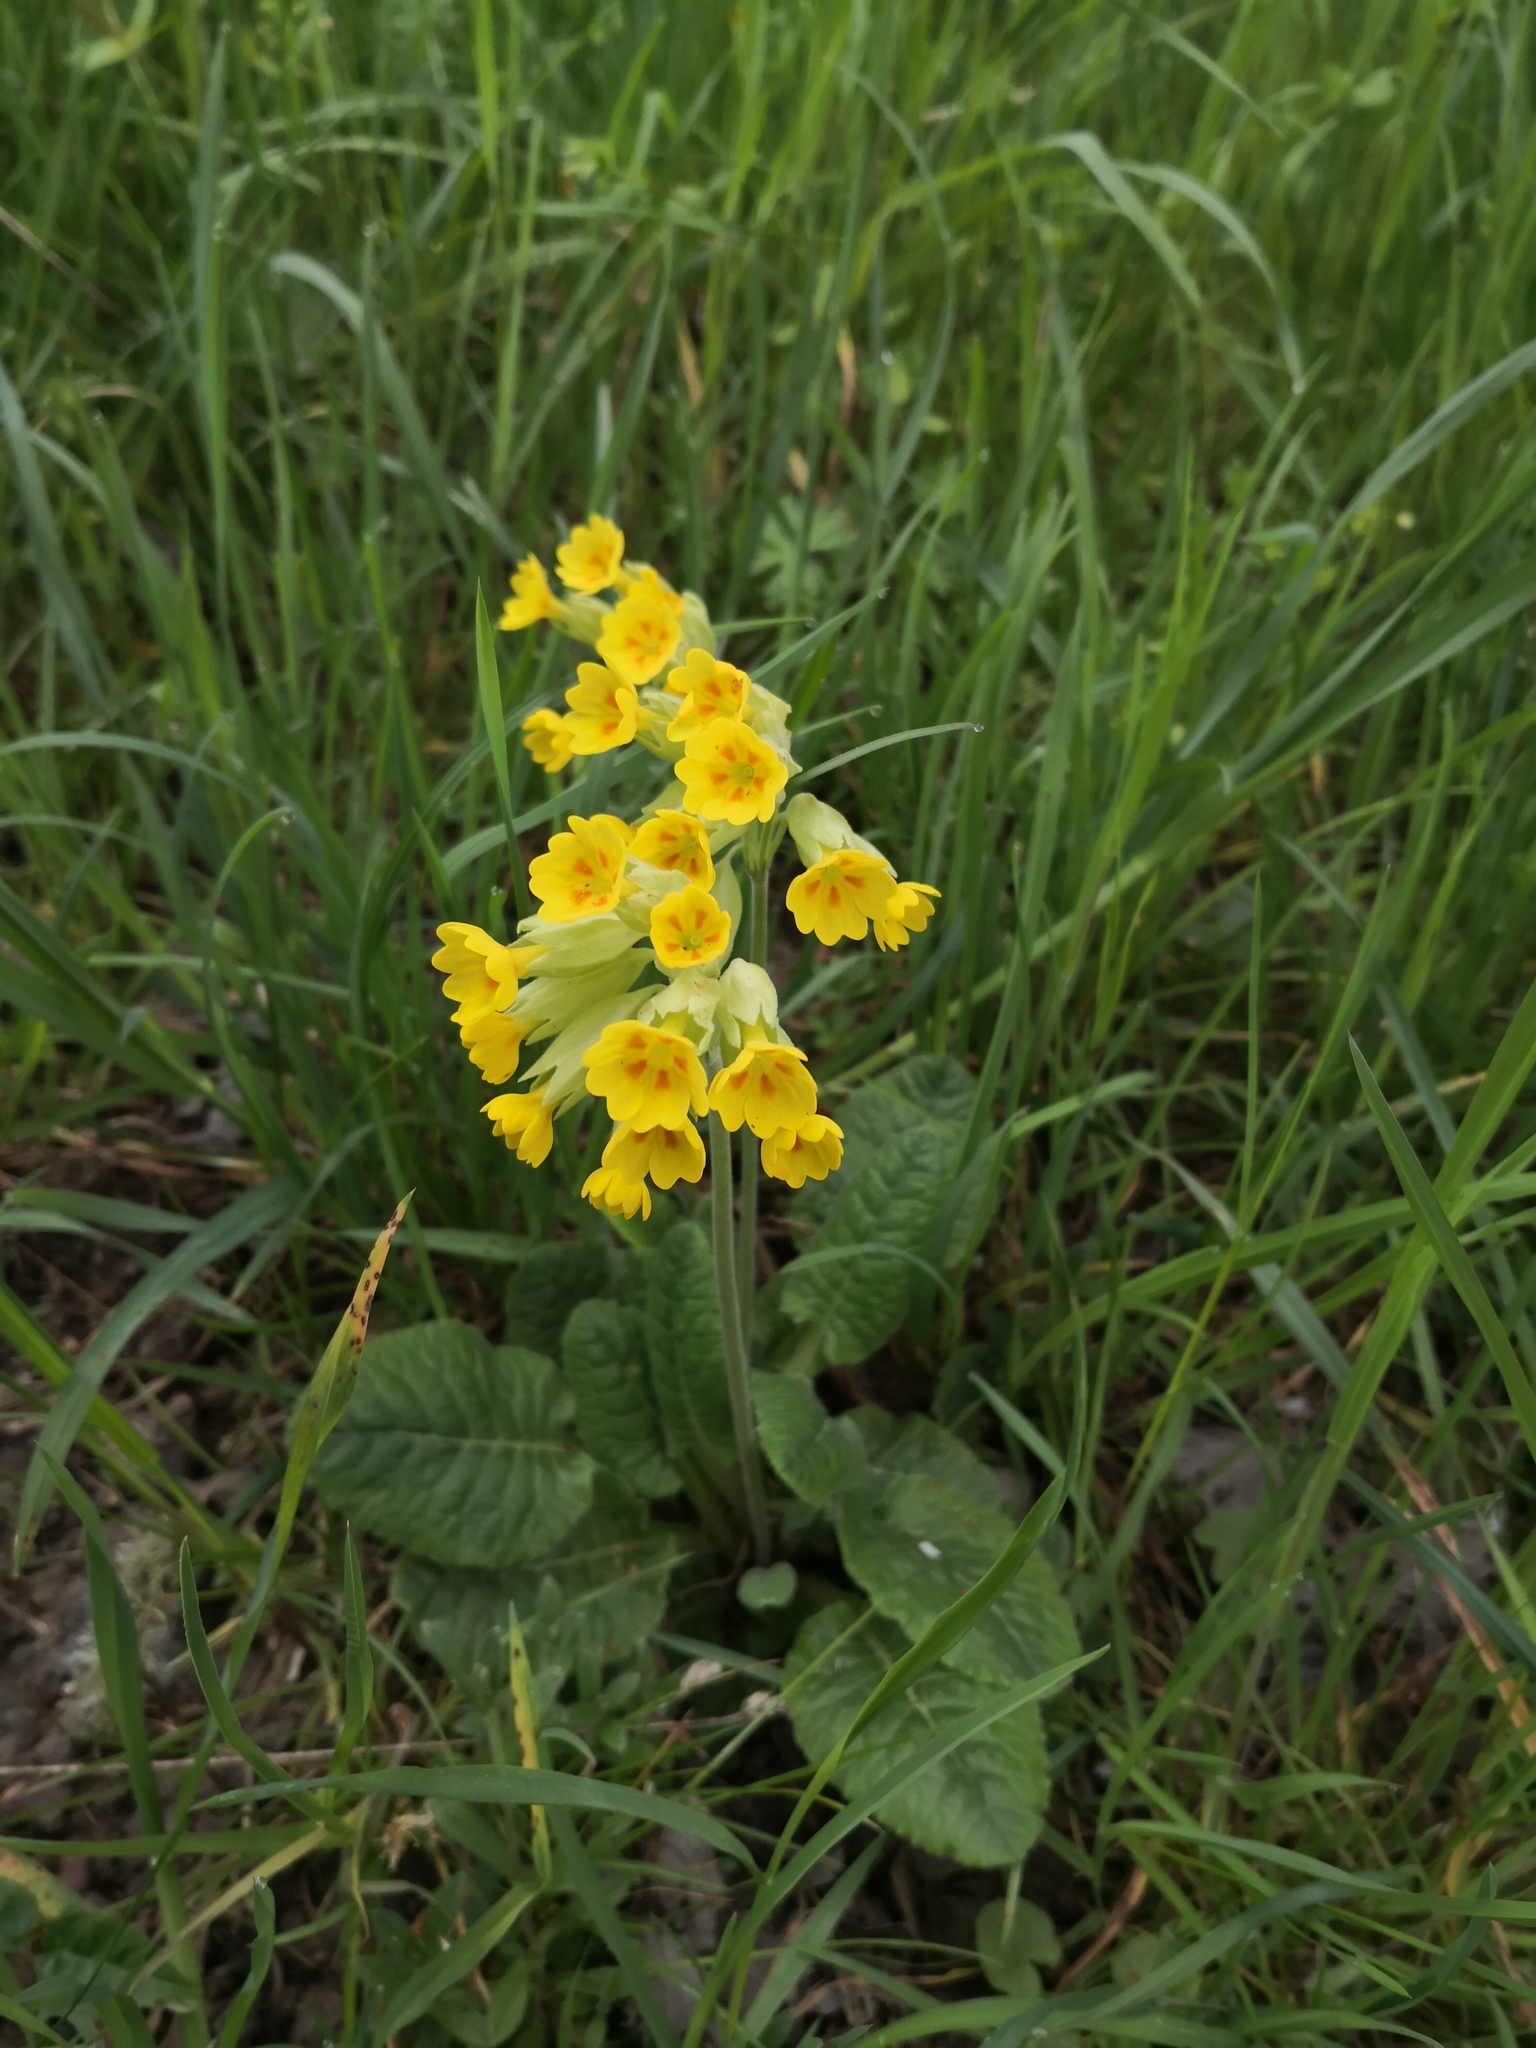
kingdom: Plantae
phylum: Tracheophyta
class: Magnoliopsida
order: Ericales
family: Primulaceae
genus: Primula
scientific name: Primula veris
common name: Cowslip
